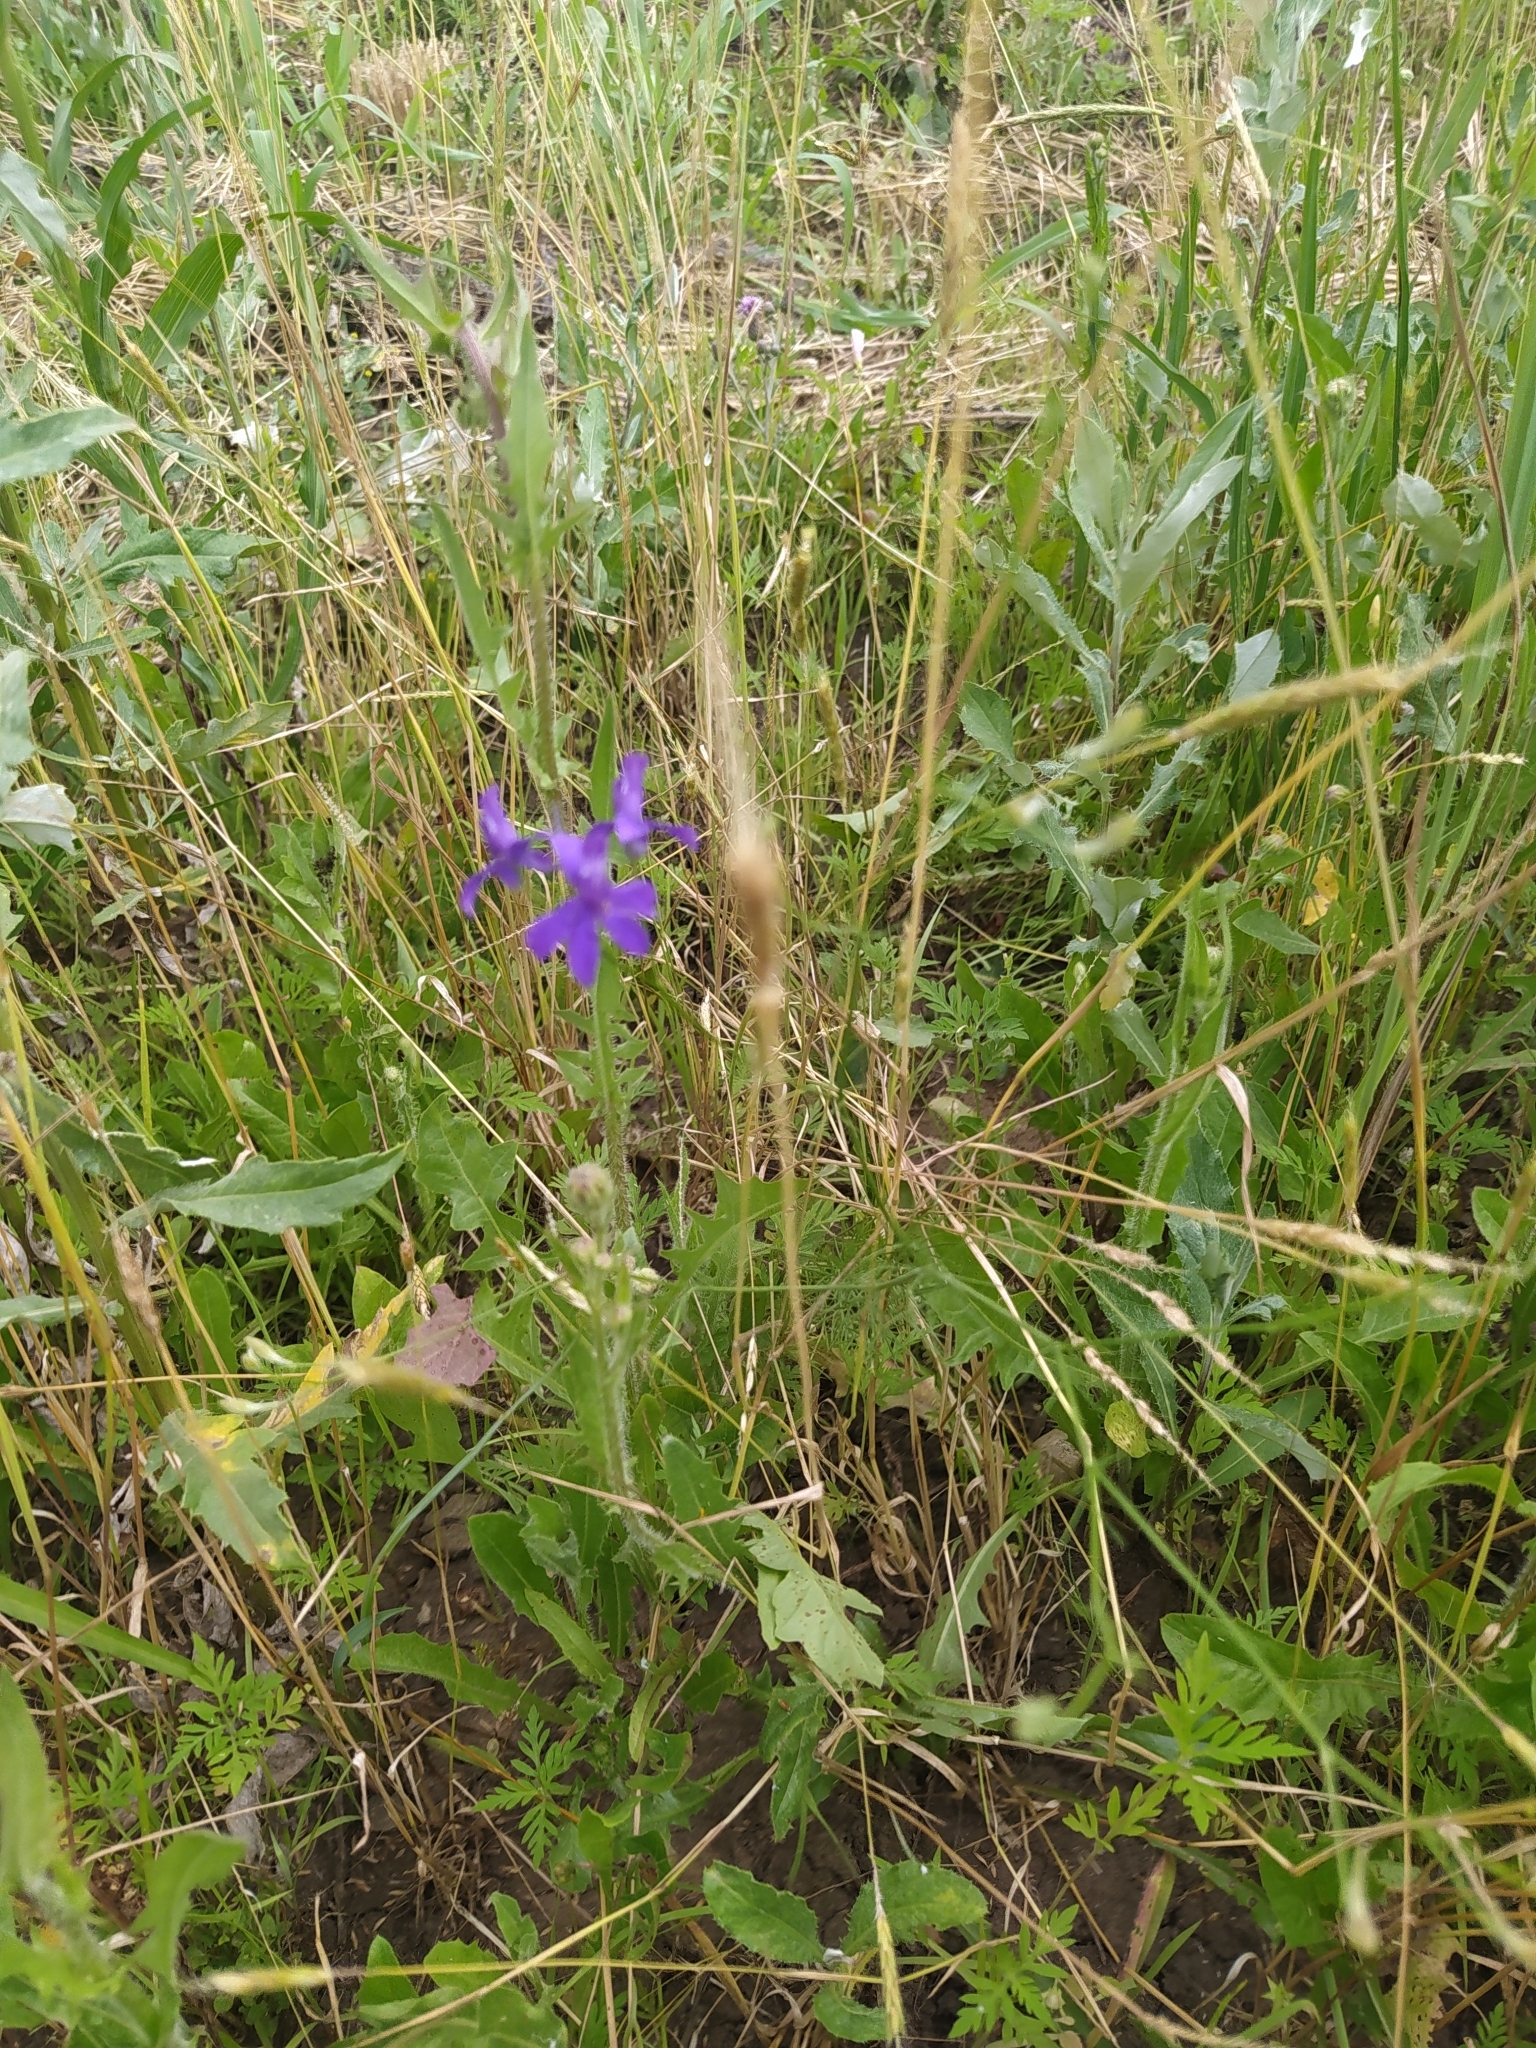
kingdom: Plantae
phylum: Tracheophyta
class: Magnoliopsida
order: Ranunculales
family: Ranunculaceae
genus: Delphinium
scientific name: Delphinium consolida
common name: Branching larkspur
